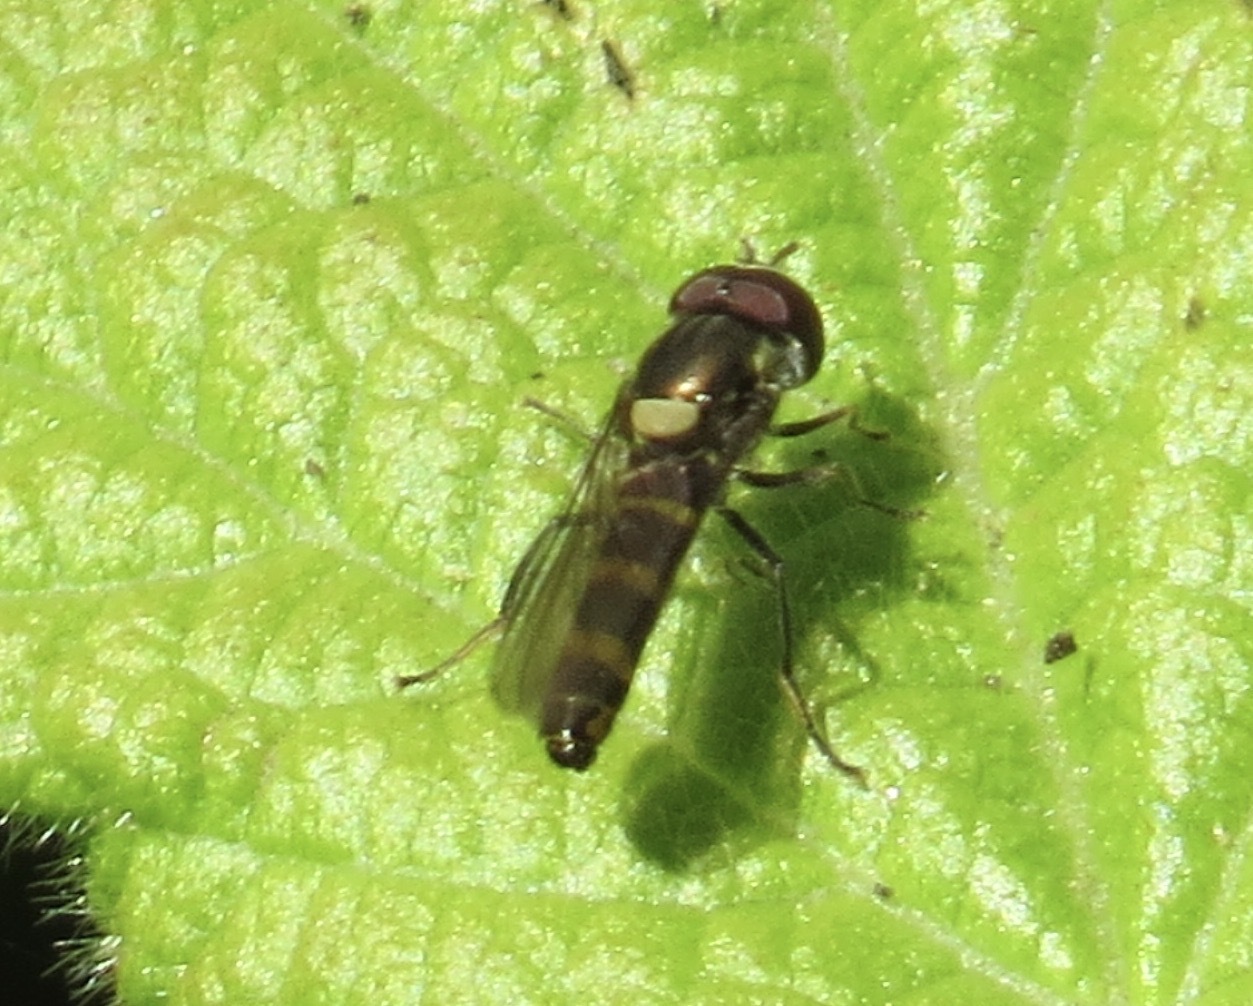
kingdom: Animalia
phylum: Arthropoda
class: Insecta
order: Diptera
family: Syrphidae
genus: Fazia
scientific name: Fazia micrura
